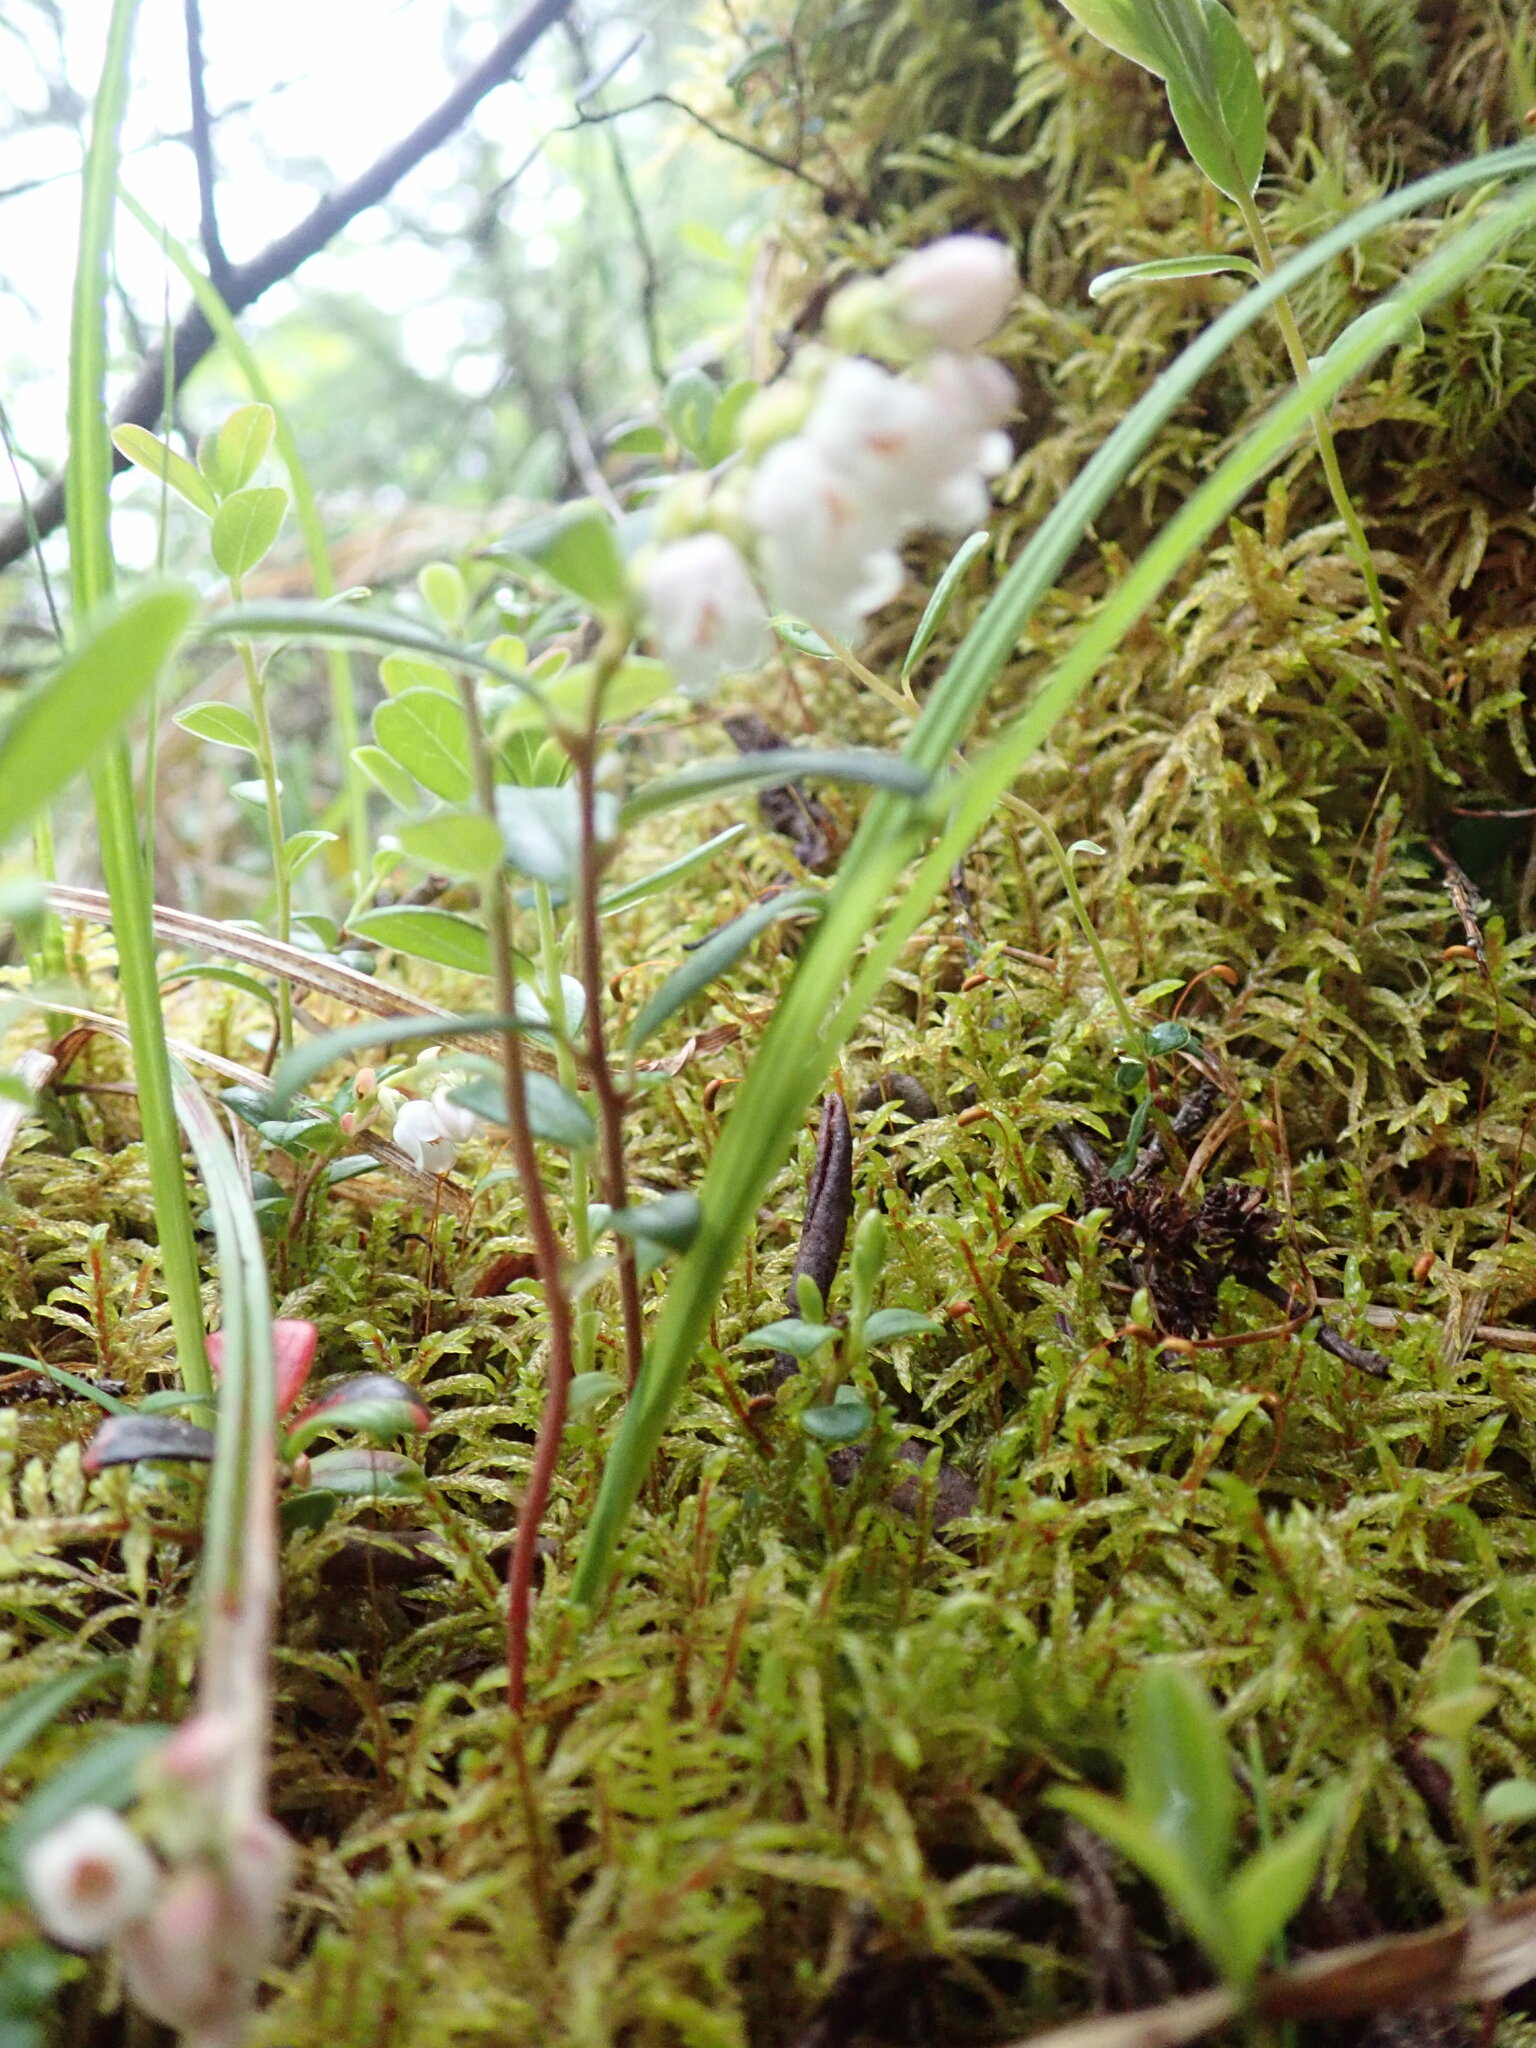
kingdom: Plantae
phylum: Tracheophyta
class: Magnoliopsida
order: Ericales
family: Ericaceae
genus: Vaccinium
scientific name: Vaccinium vitis-idaea
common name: Cowberry
